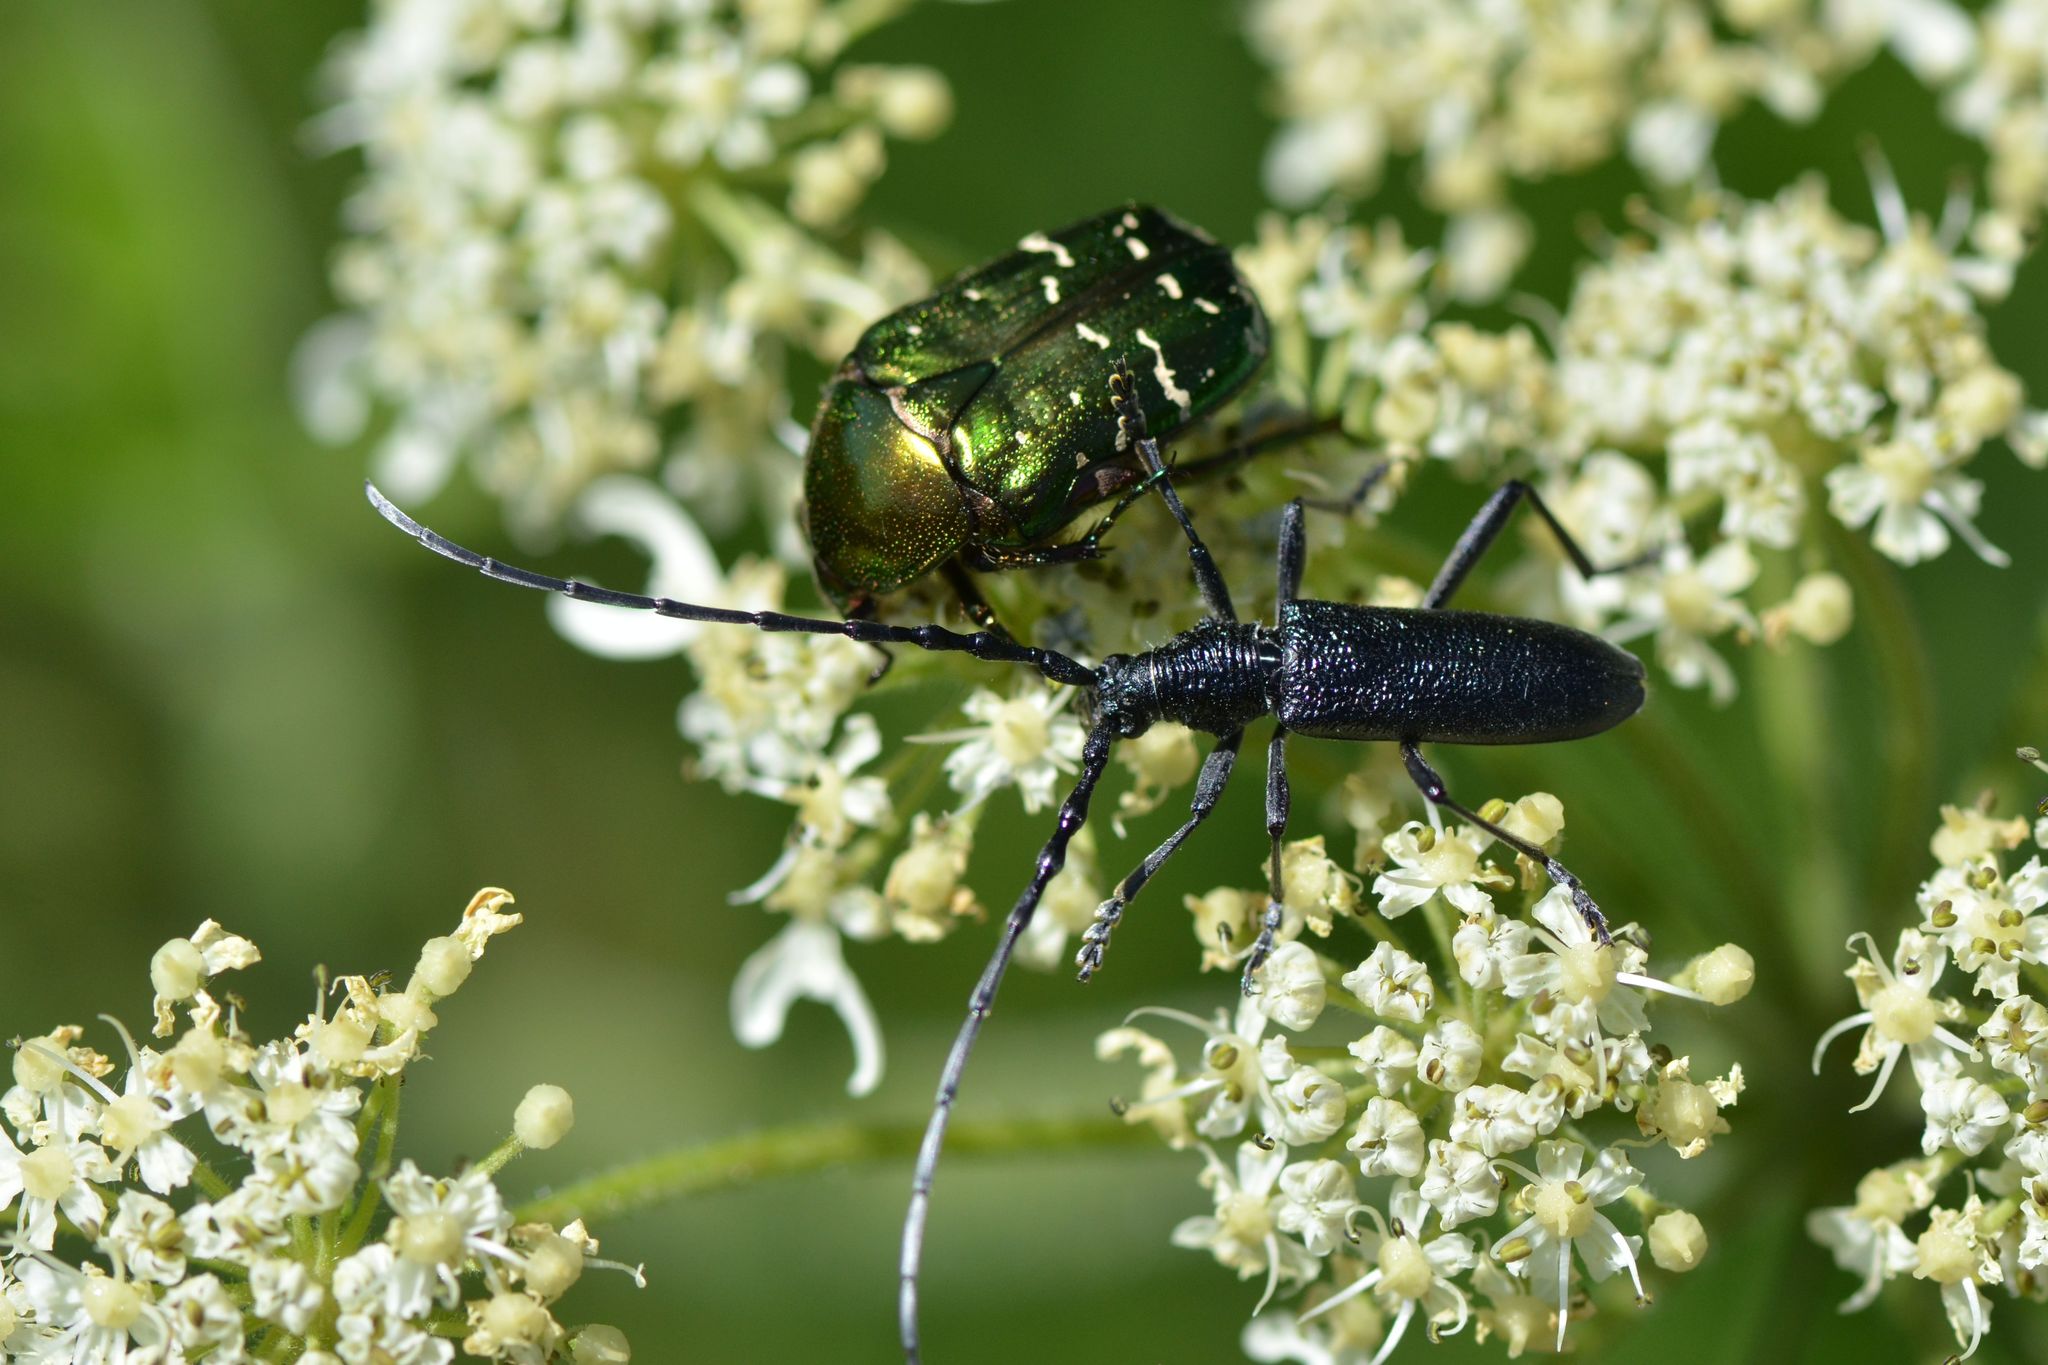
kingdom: Animalia
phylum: Arthropoda
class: Insecta
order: Coleoptera
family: Cerambycidae
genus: Cerambyx
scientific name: Cerambyx scopolii
